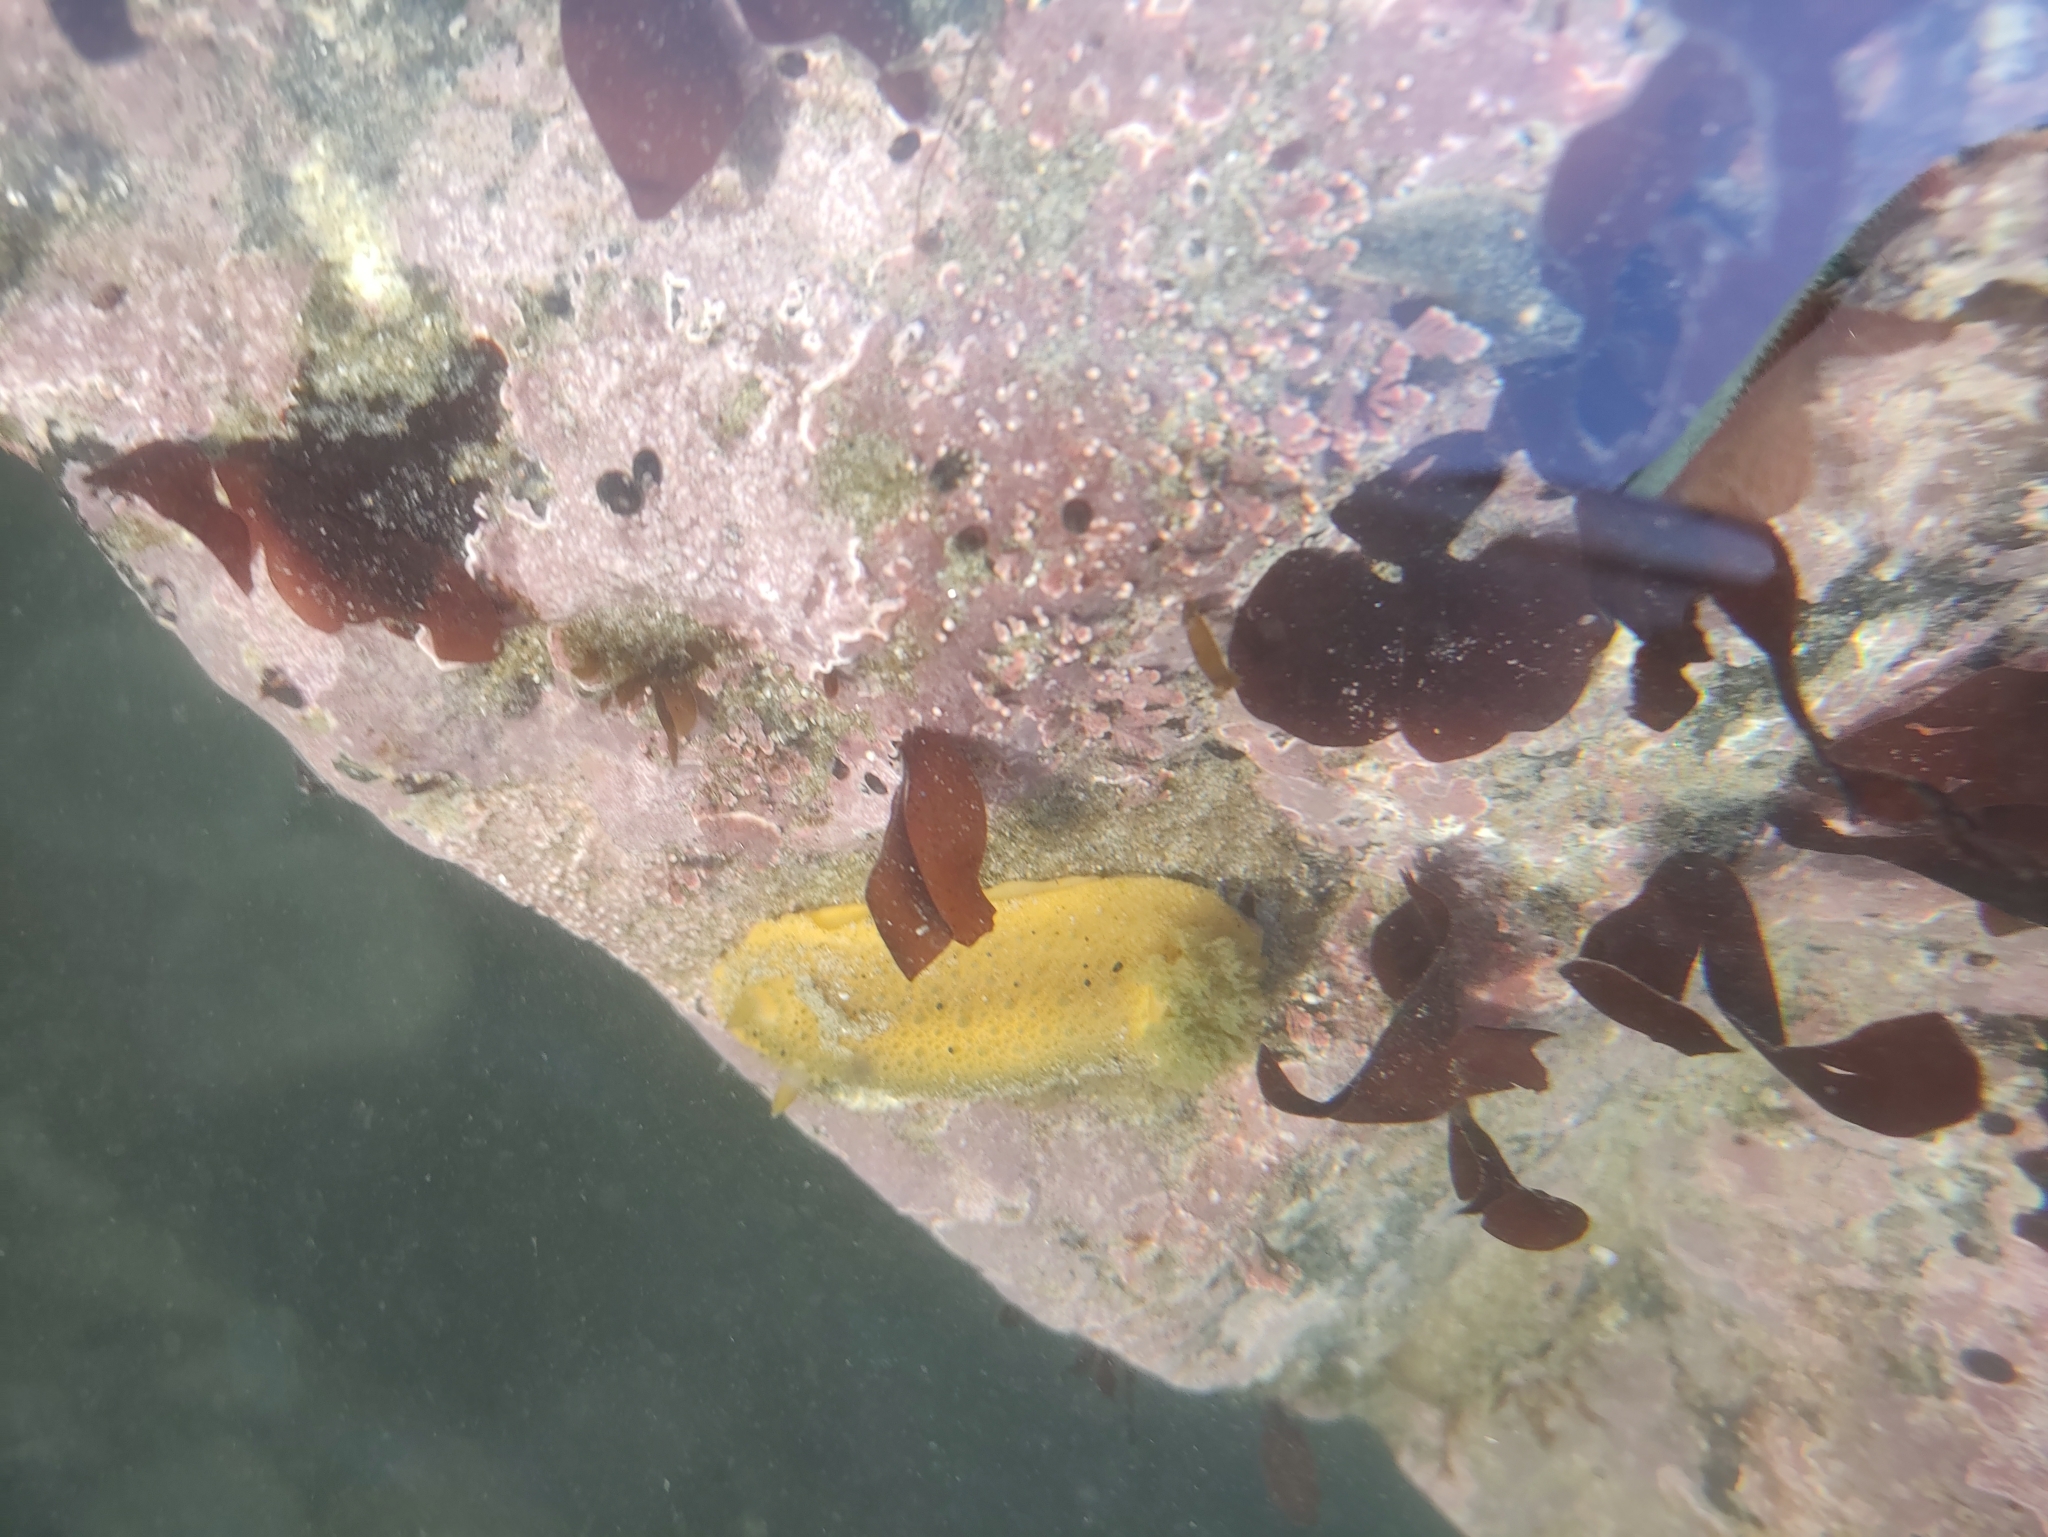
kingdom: Animalia
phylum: Mollusca
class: Gastropoda
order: Nudibranchia
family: Dorididae
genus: Doris
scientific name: Doris montereyensis
